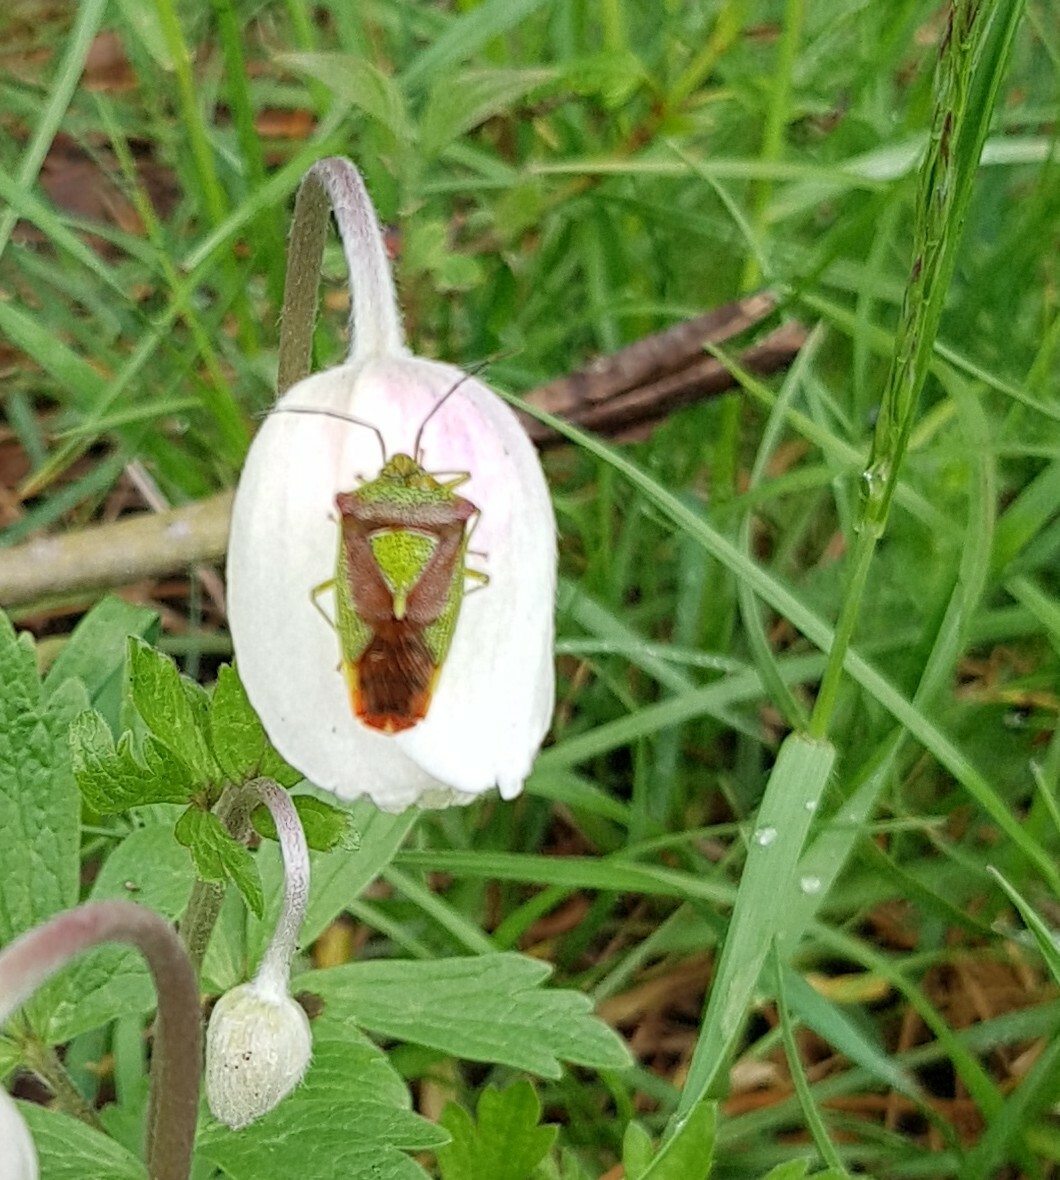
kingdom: Animalia
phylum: Arthropoda
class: Insecta
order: Hemiptera
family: Acanthosomatidae
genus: Acanthosoma
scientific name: Acanthosoma haemorrhoidale
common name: Hawthorn shieldbug
